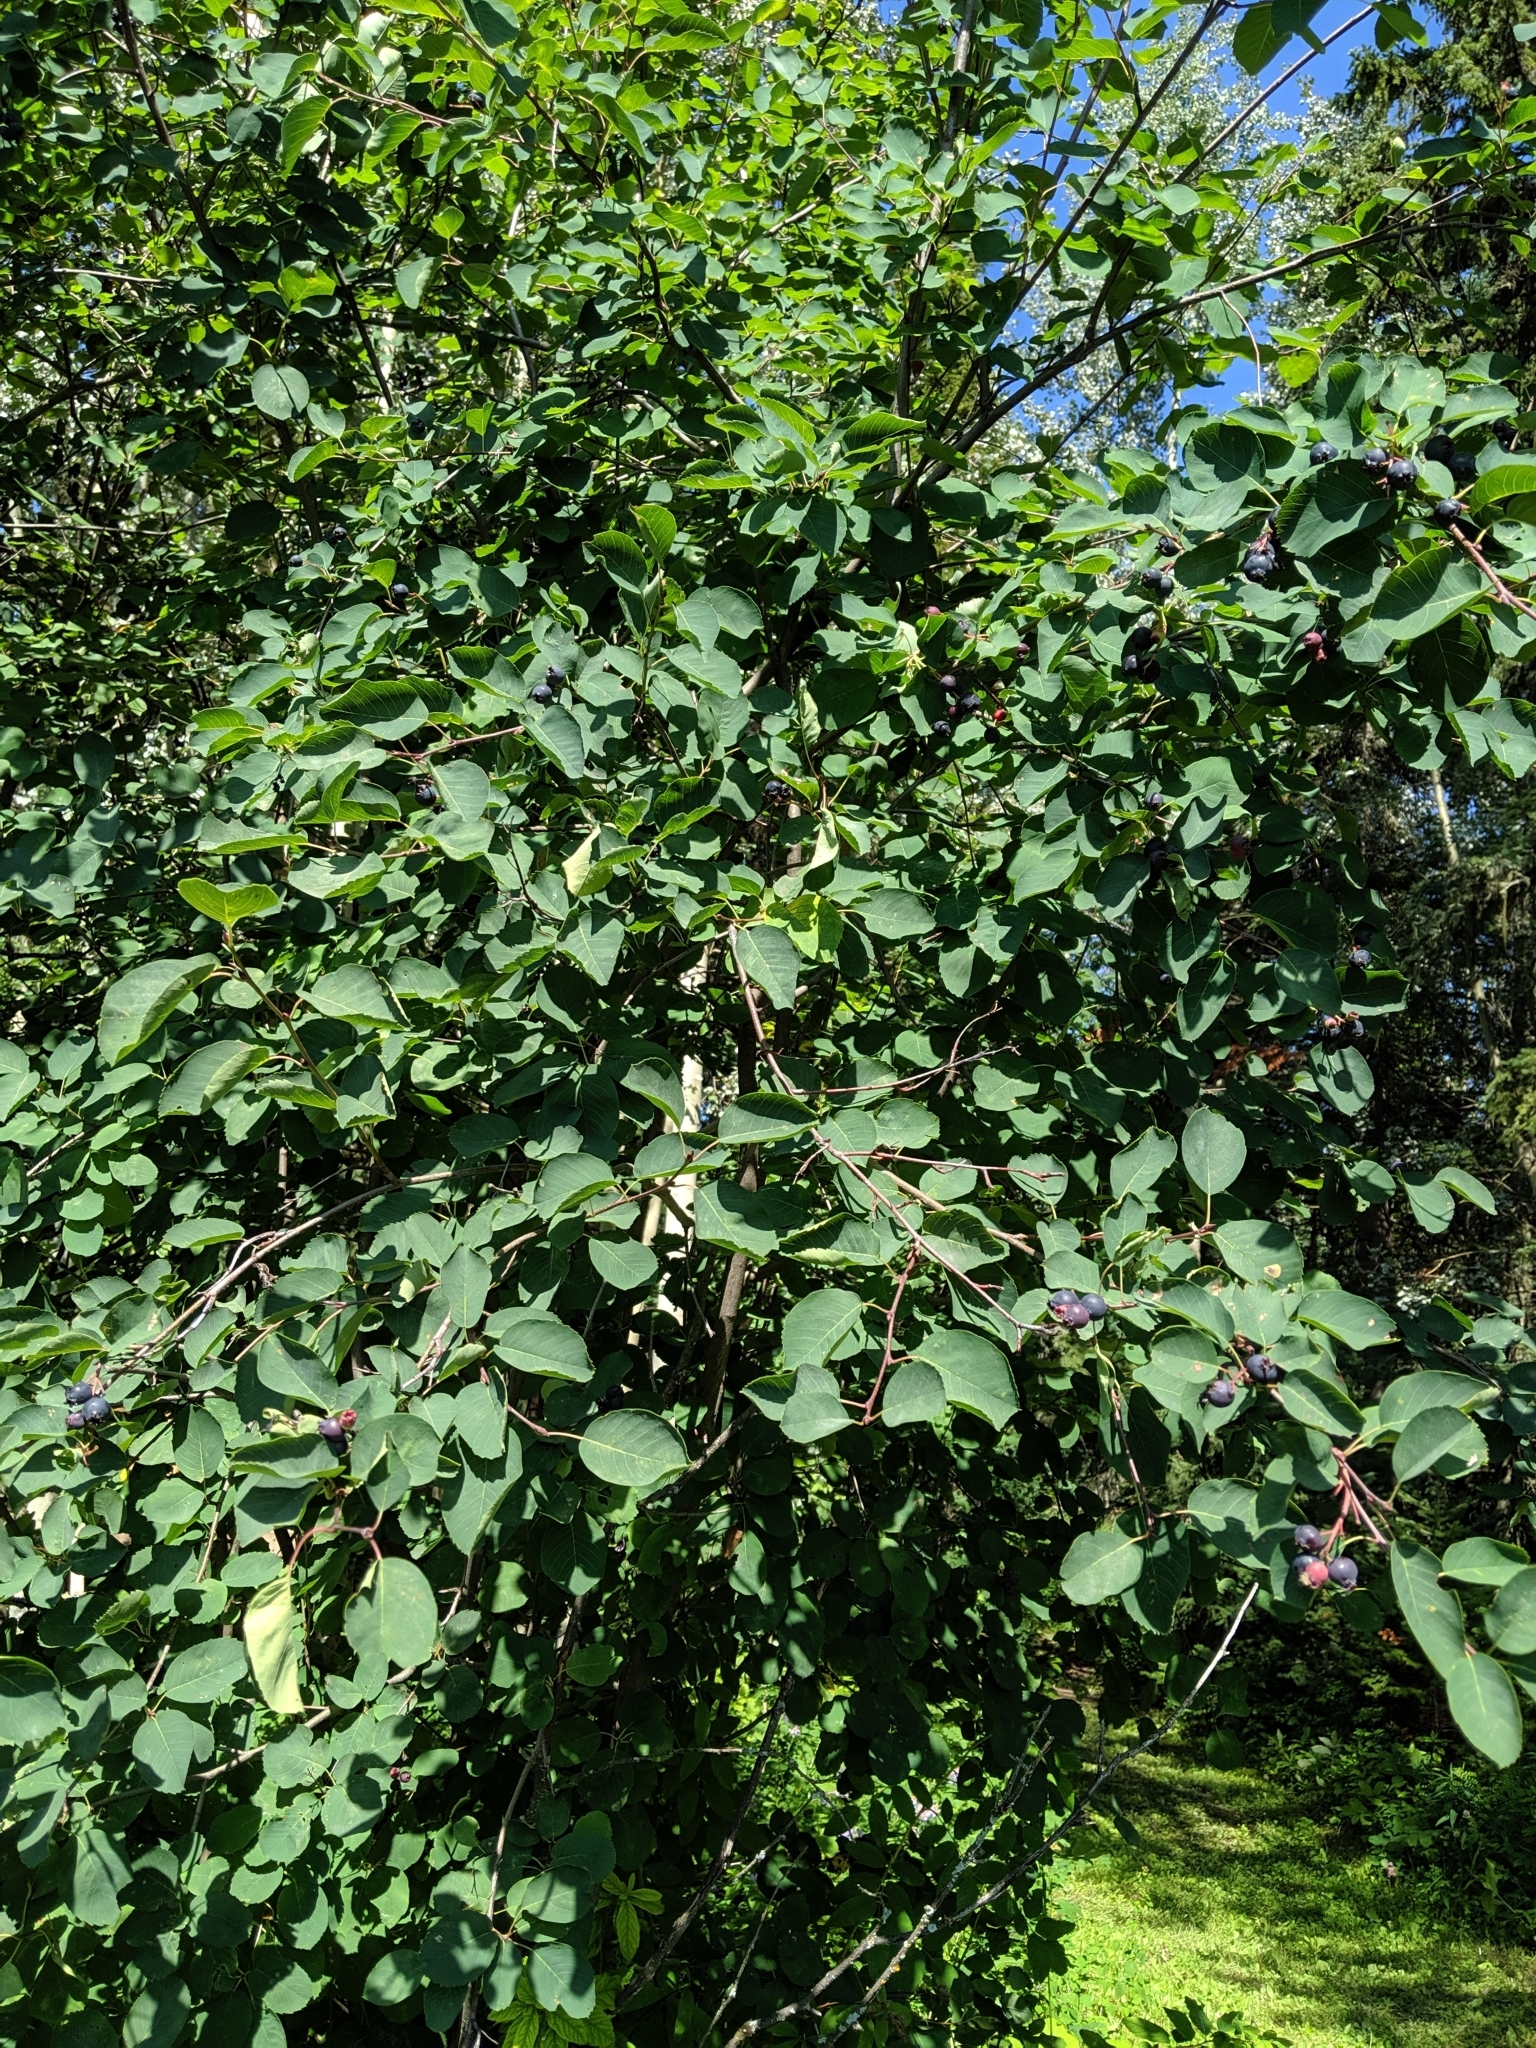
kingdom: Plantae
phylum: Tracheophyta
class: Magnoliopsida
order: Rosales
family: Rosaceae
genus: Amelanchier
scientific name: Amelanchier alnifolia
